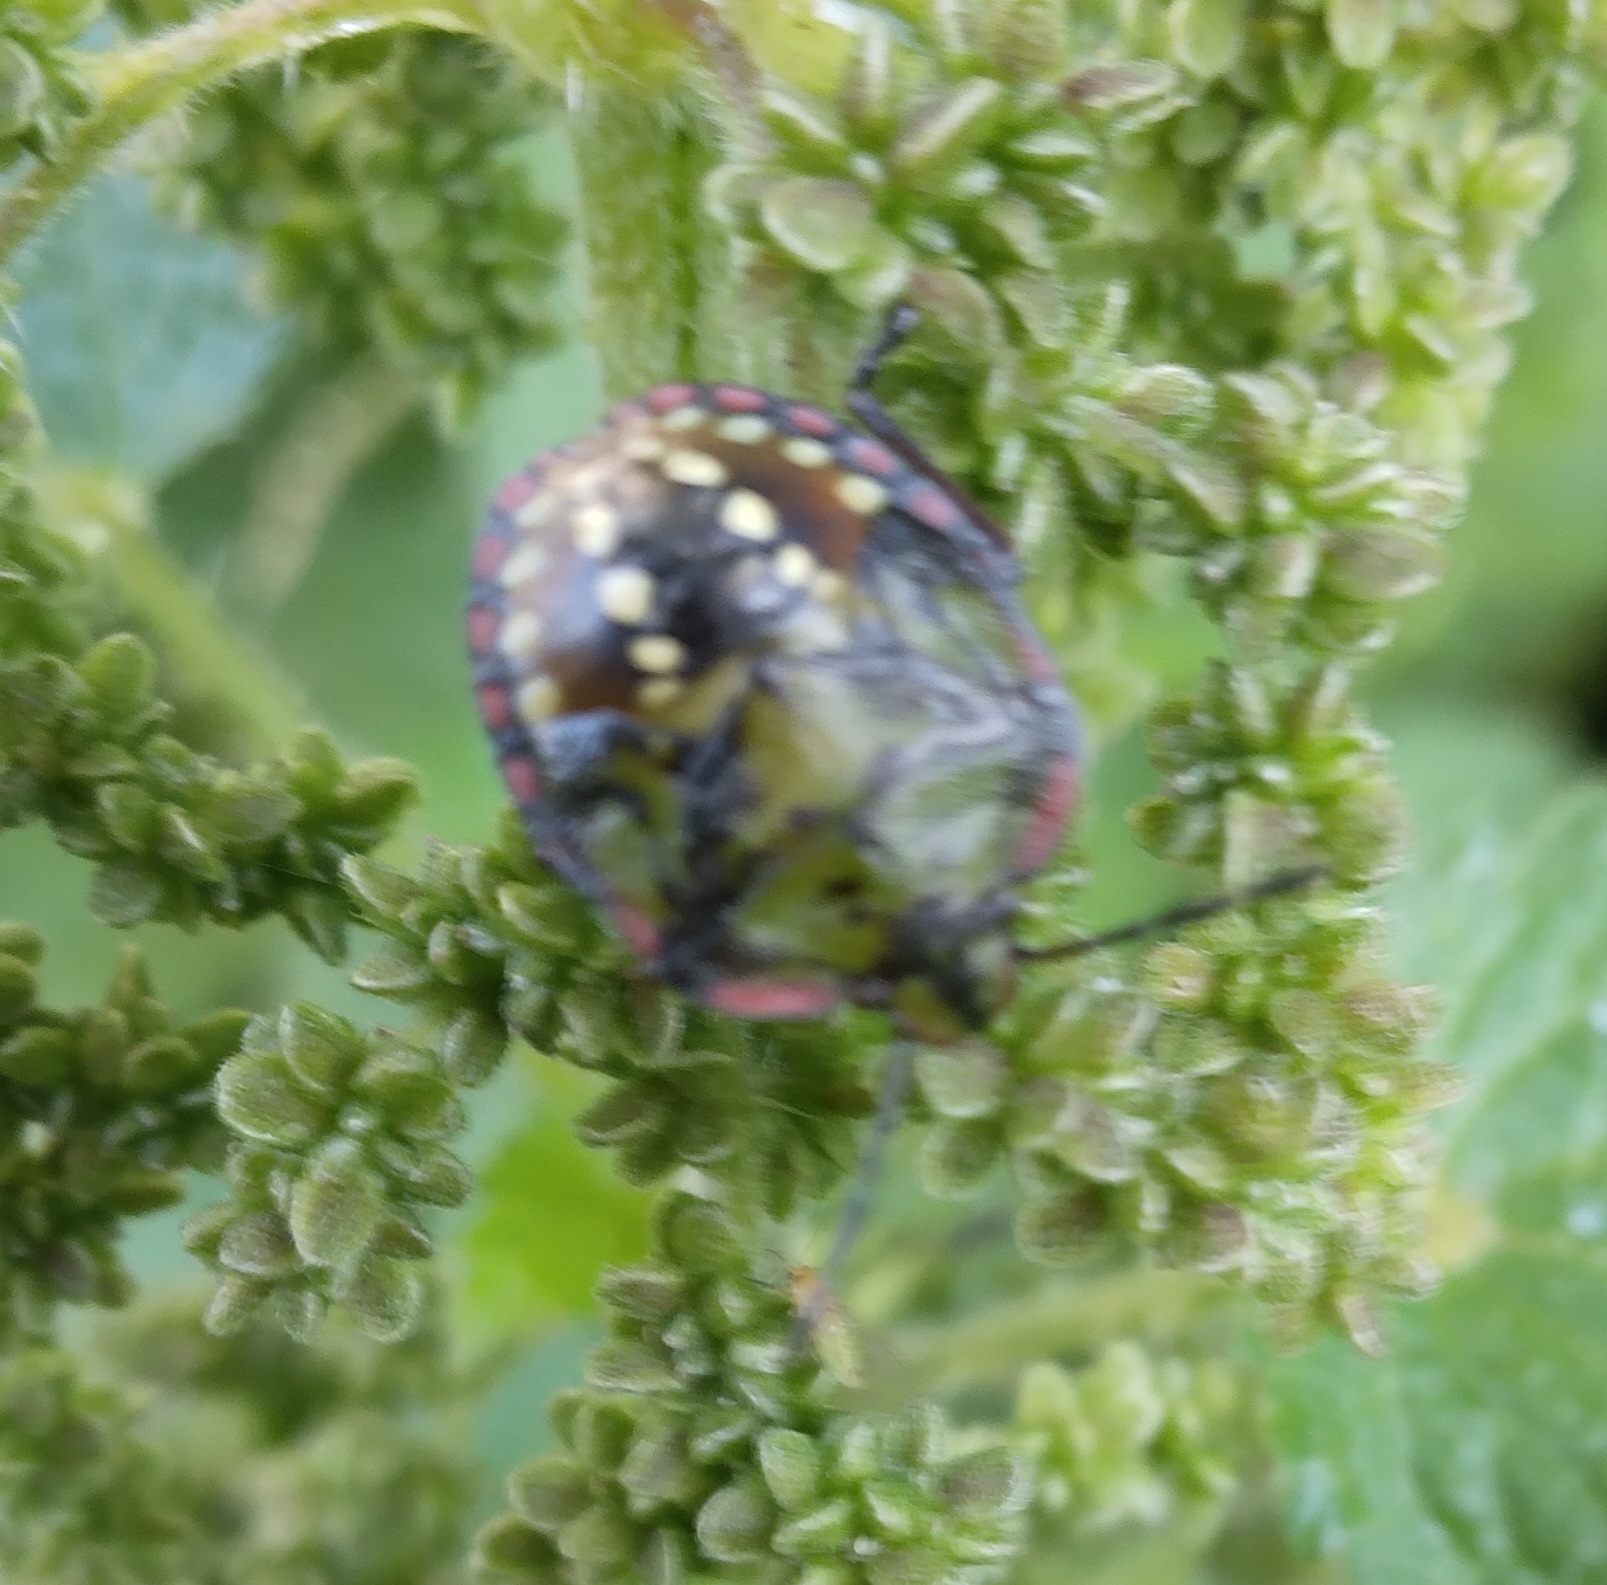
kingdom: Animalia
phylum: Arthropoda
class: Insecta
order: Hemiptera
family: Pentatomidae
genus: Nezara
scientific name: Nezara viridula
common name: Southern green stink bug
